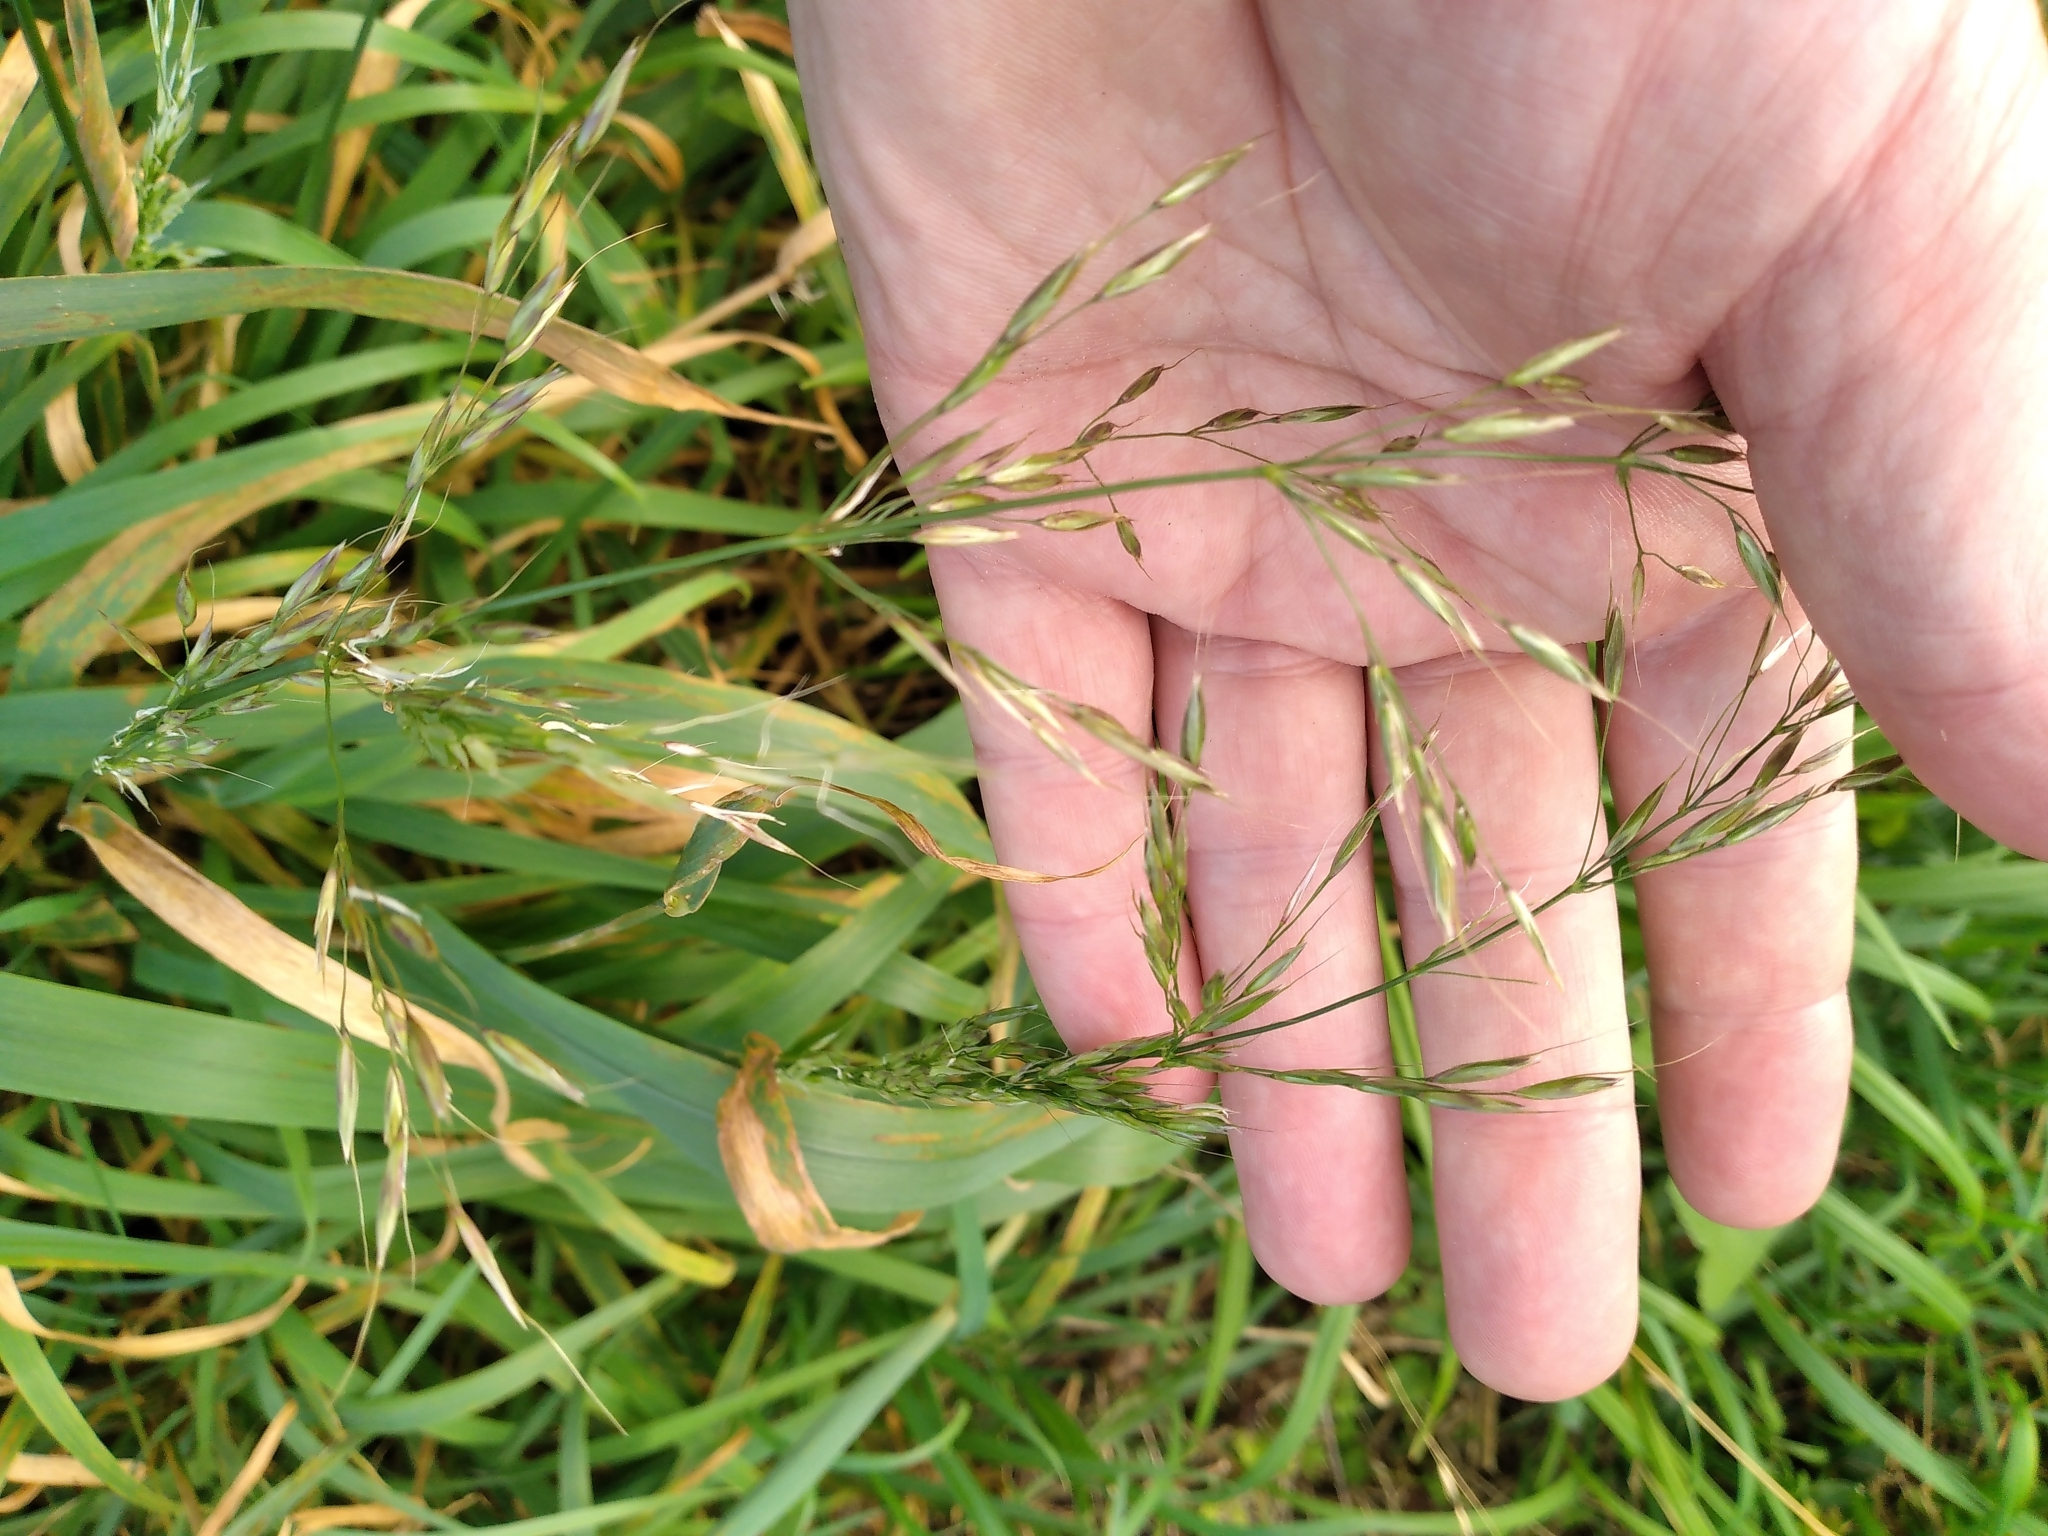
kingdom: Plantae
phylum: Tracheophyta
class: Liliopsida
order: Poales
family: Poaceae
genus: Arrhenatherum
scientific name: Arrhenatherum elatius
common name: Tall oatgrass
